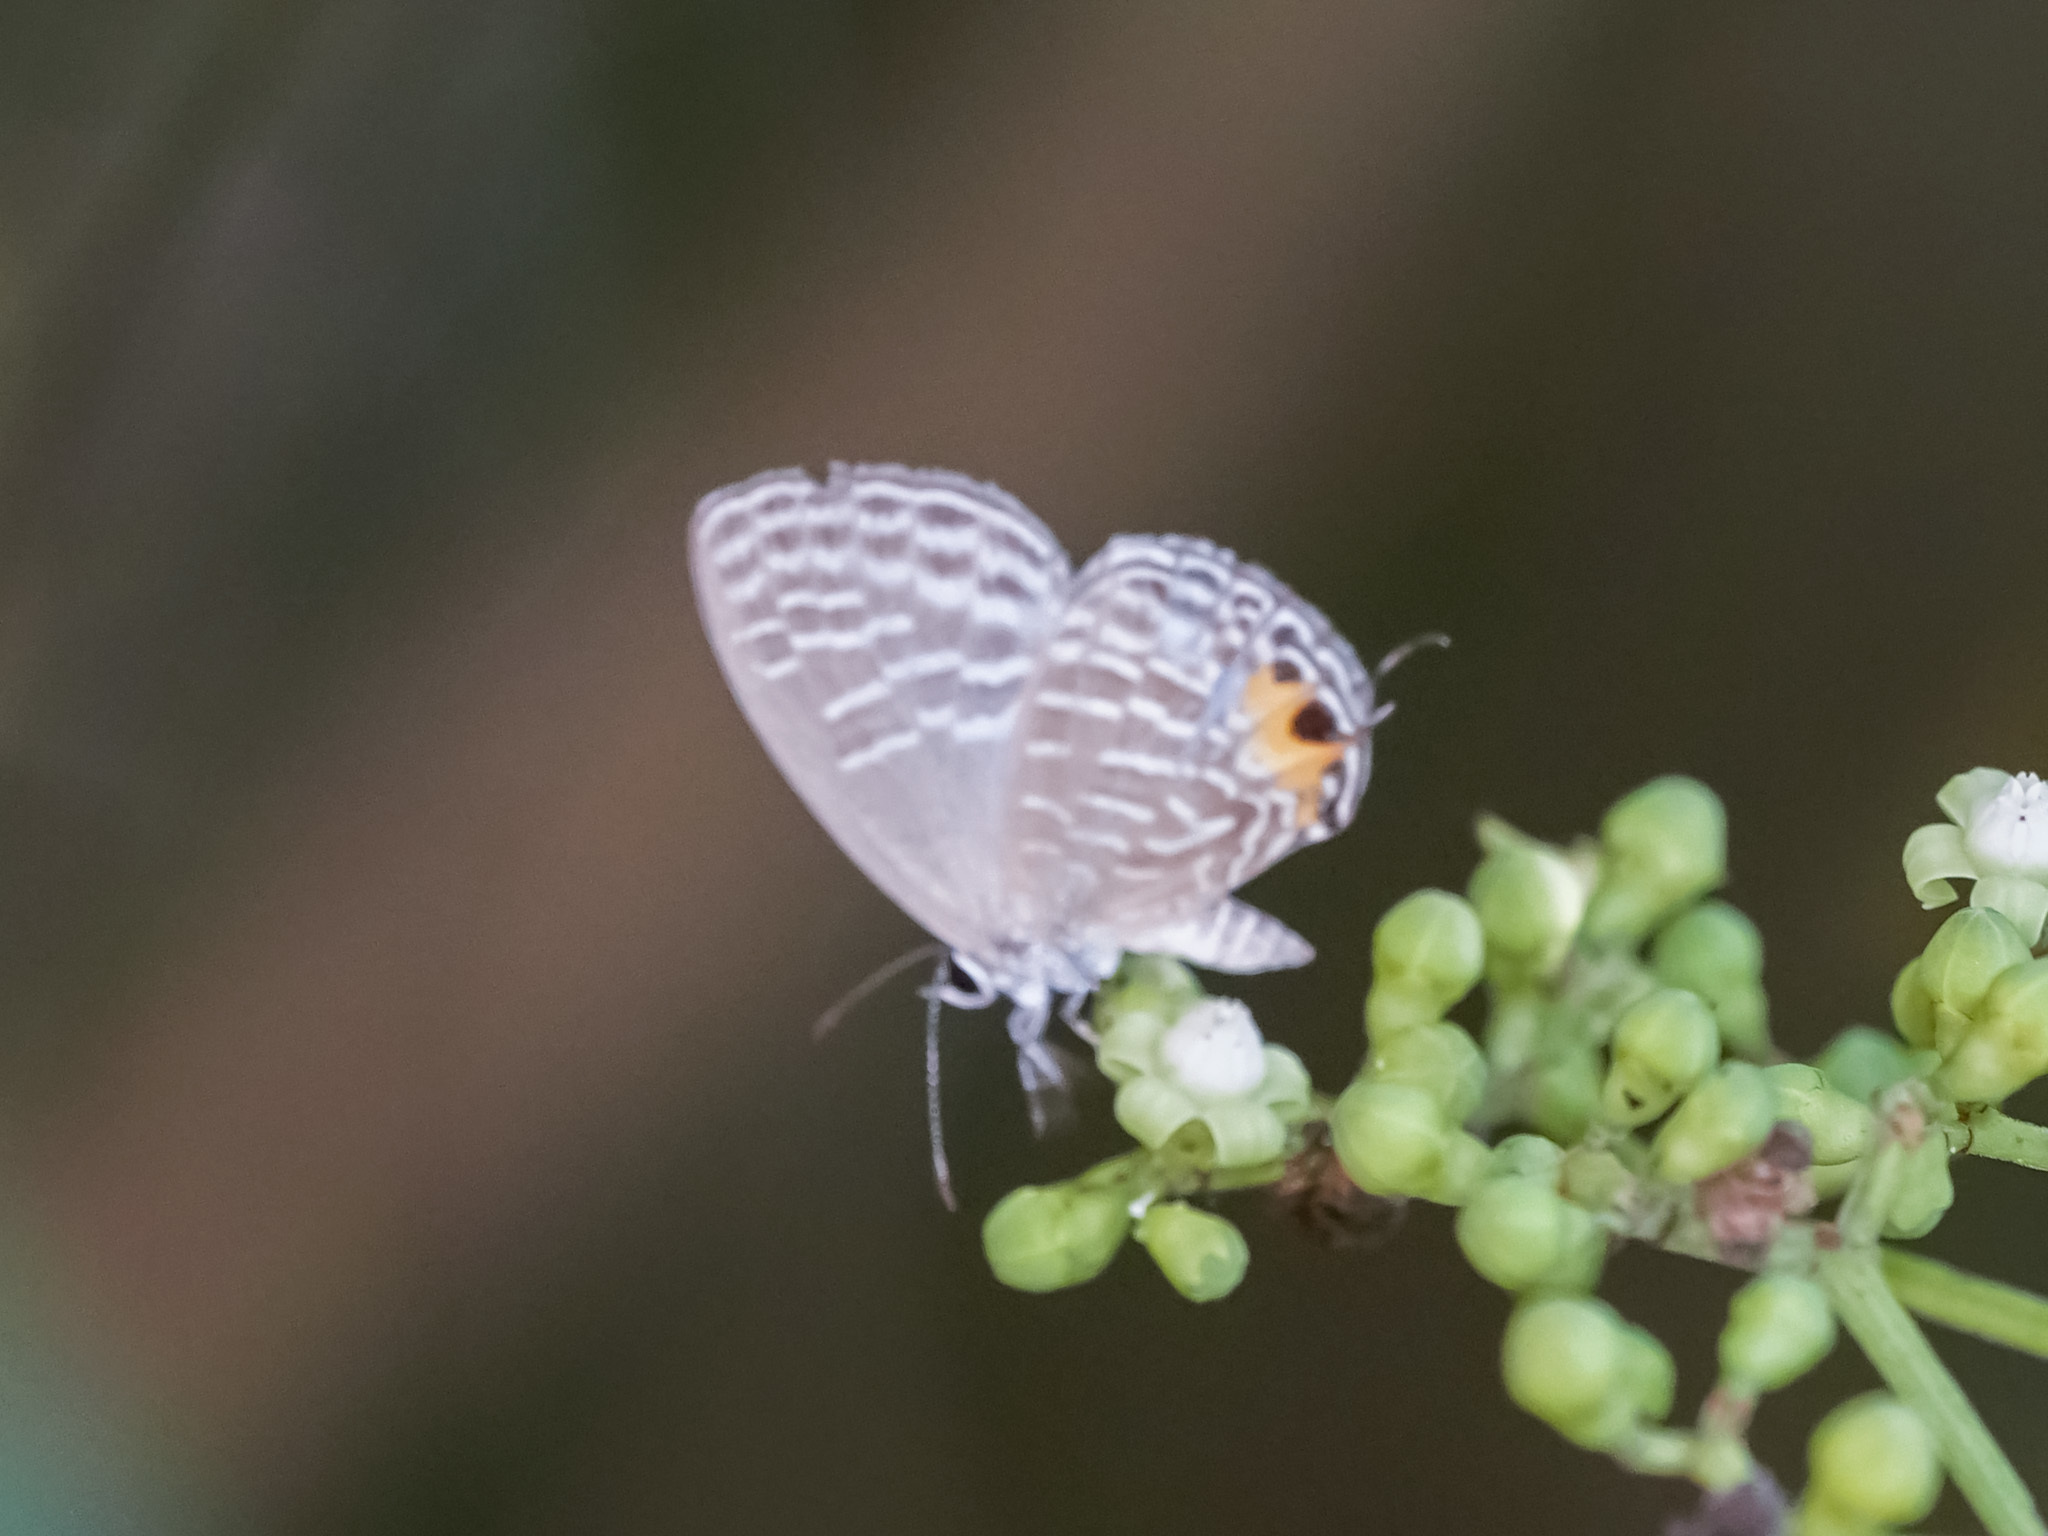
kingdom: Animalia
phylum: Arthropoda
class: Insecta
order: Lepidoptera
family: Lycaenidae
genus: Jamides
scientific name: Jamides alecto
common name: Metallic cerulean
